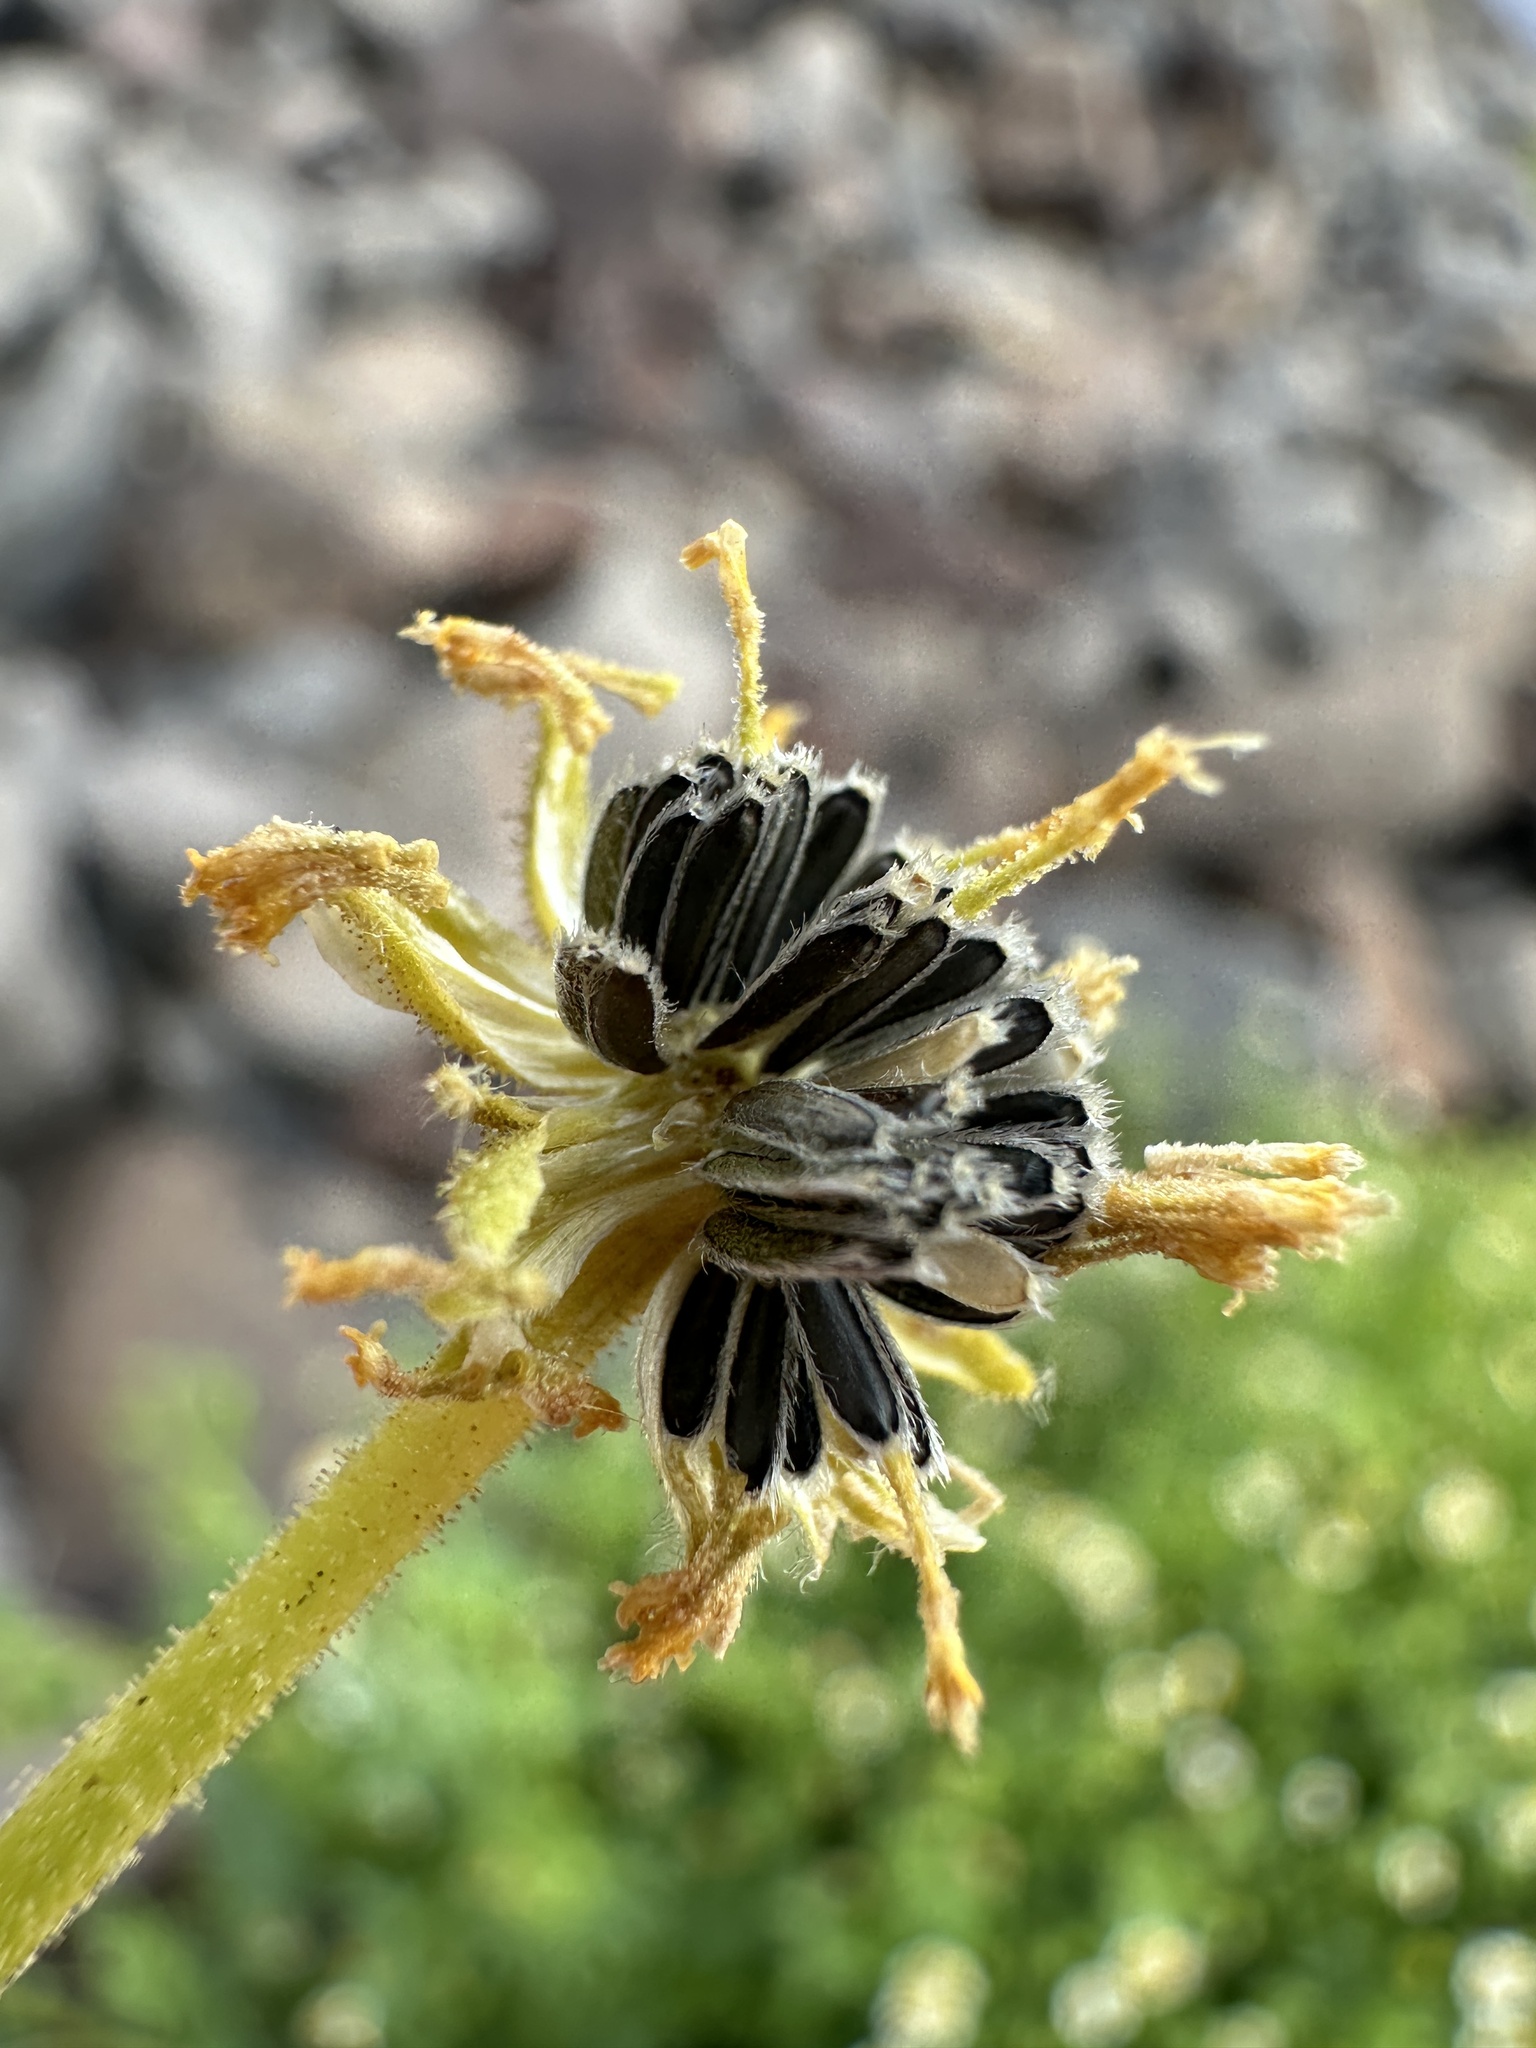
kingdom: Plantae
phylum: Tracheophyta
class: Magnoliopsida
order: Asterales
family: Asteraceae
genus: Laphamia
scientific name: Laphamia emoryi
